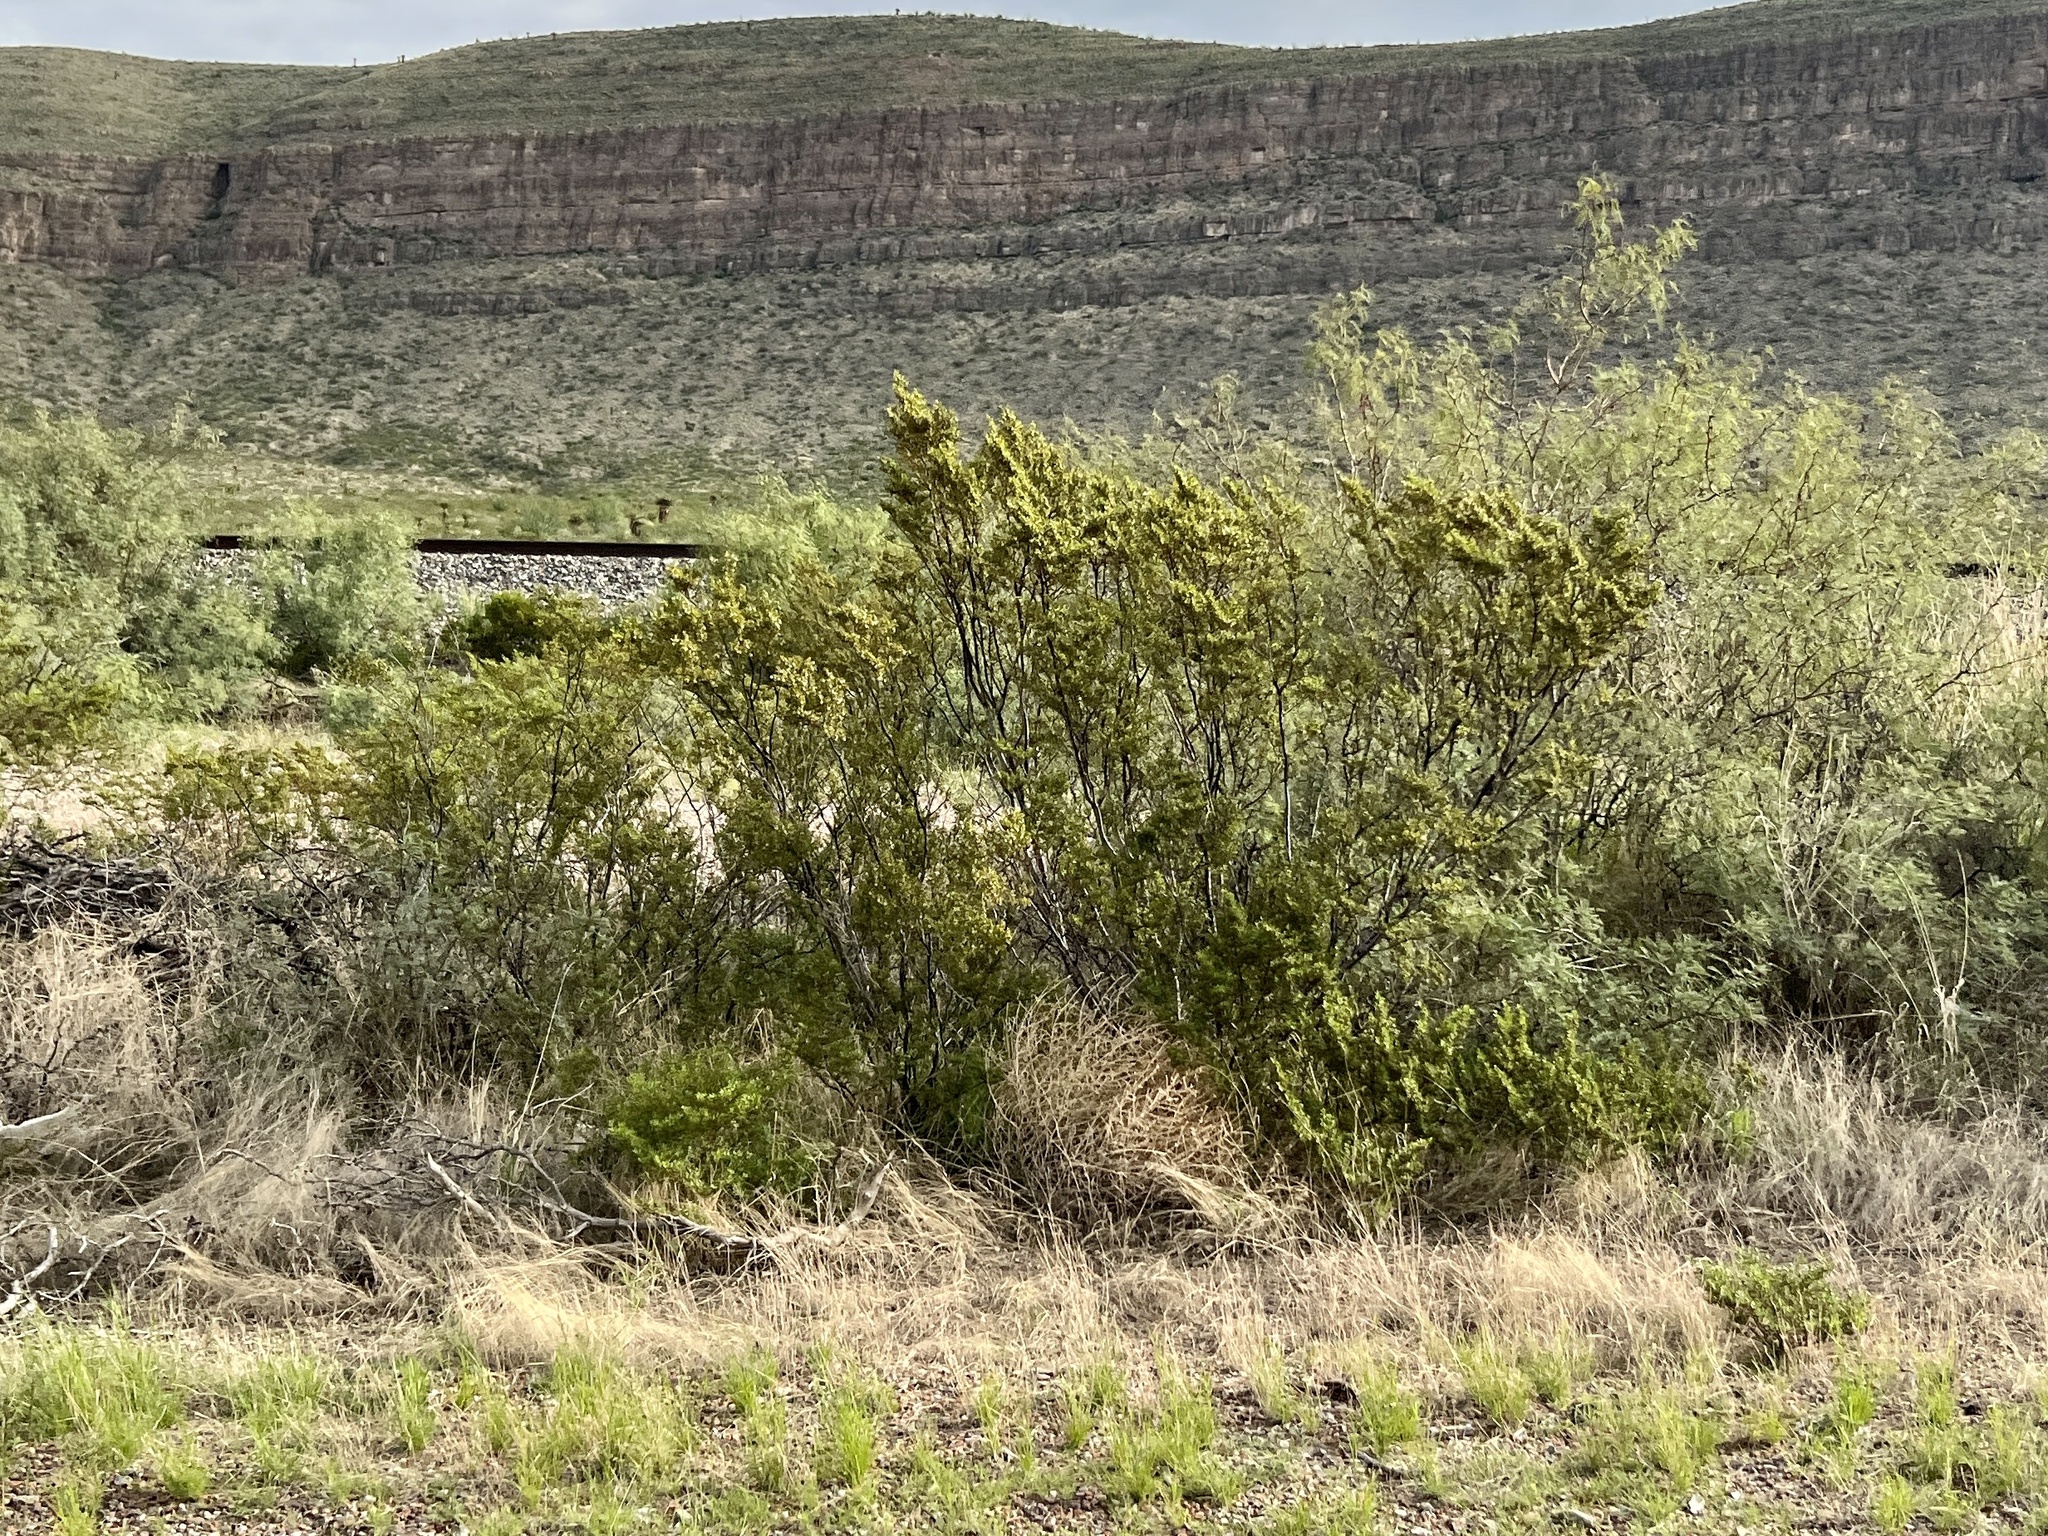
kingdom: Plantae
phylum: Tracheophyta
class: Magnoliopsida
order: Zygophyllales
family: Zygophyllaceae
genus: Larrea
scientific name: Larrea tridentata
